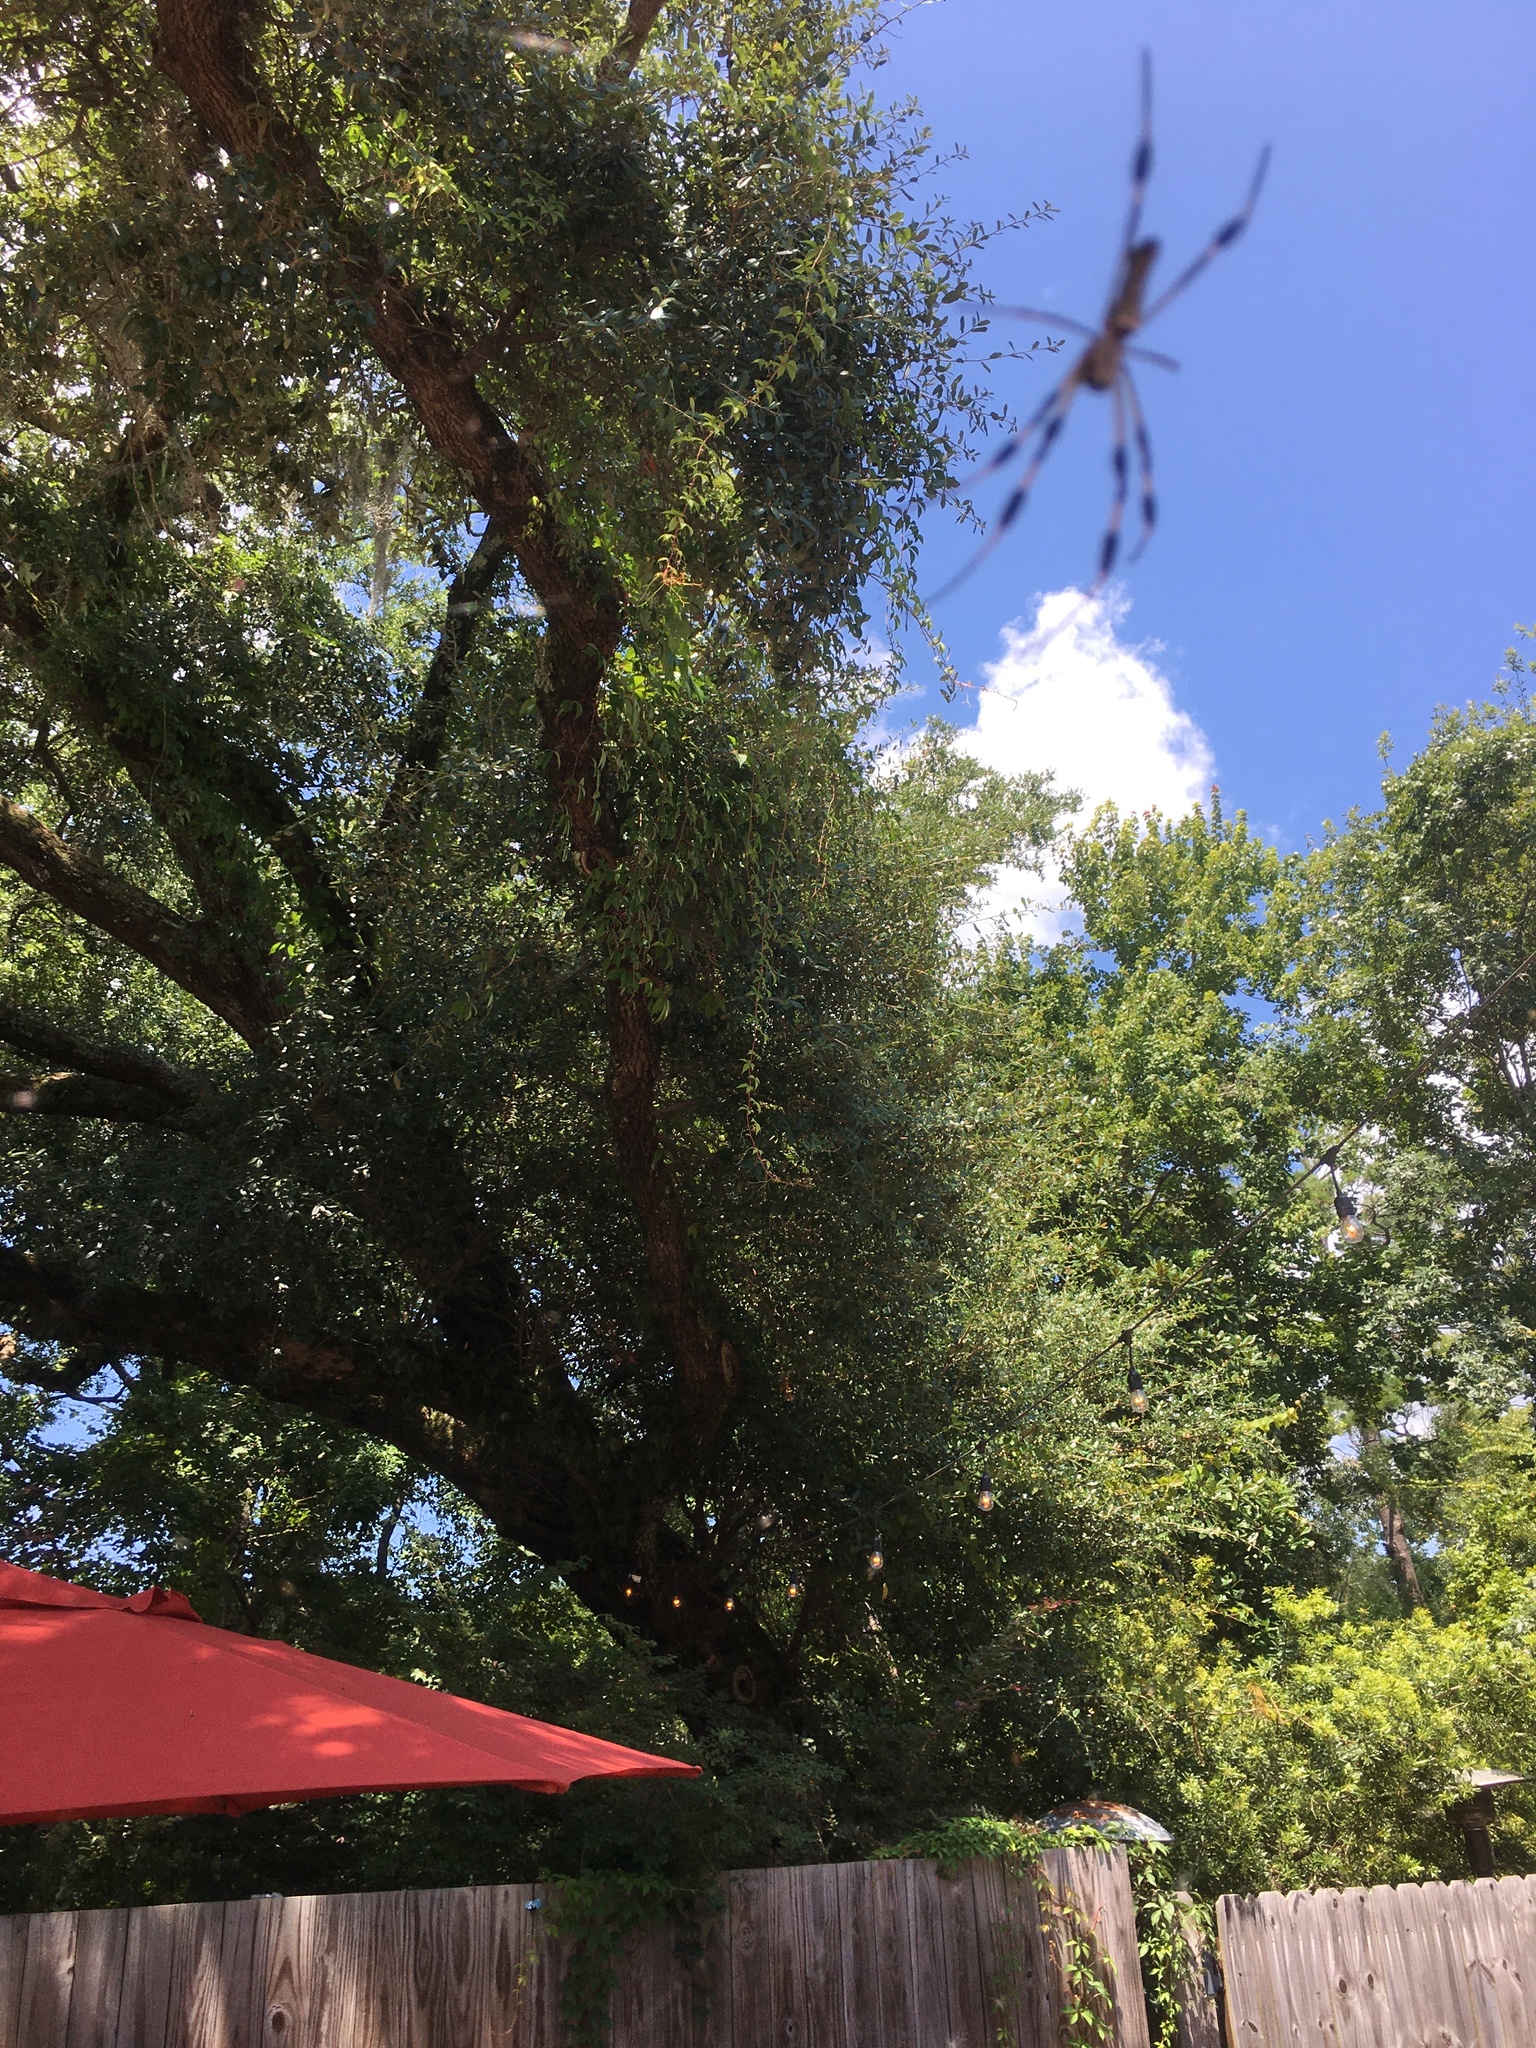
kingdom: Animalia
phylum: Arthropoda
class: Arachnida
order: Araneae
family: Araneidae
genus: Trichonephila
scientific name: Trichonephila clavipes
